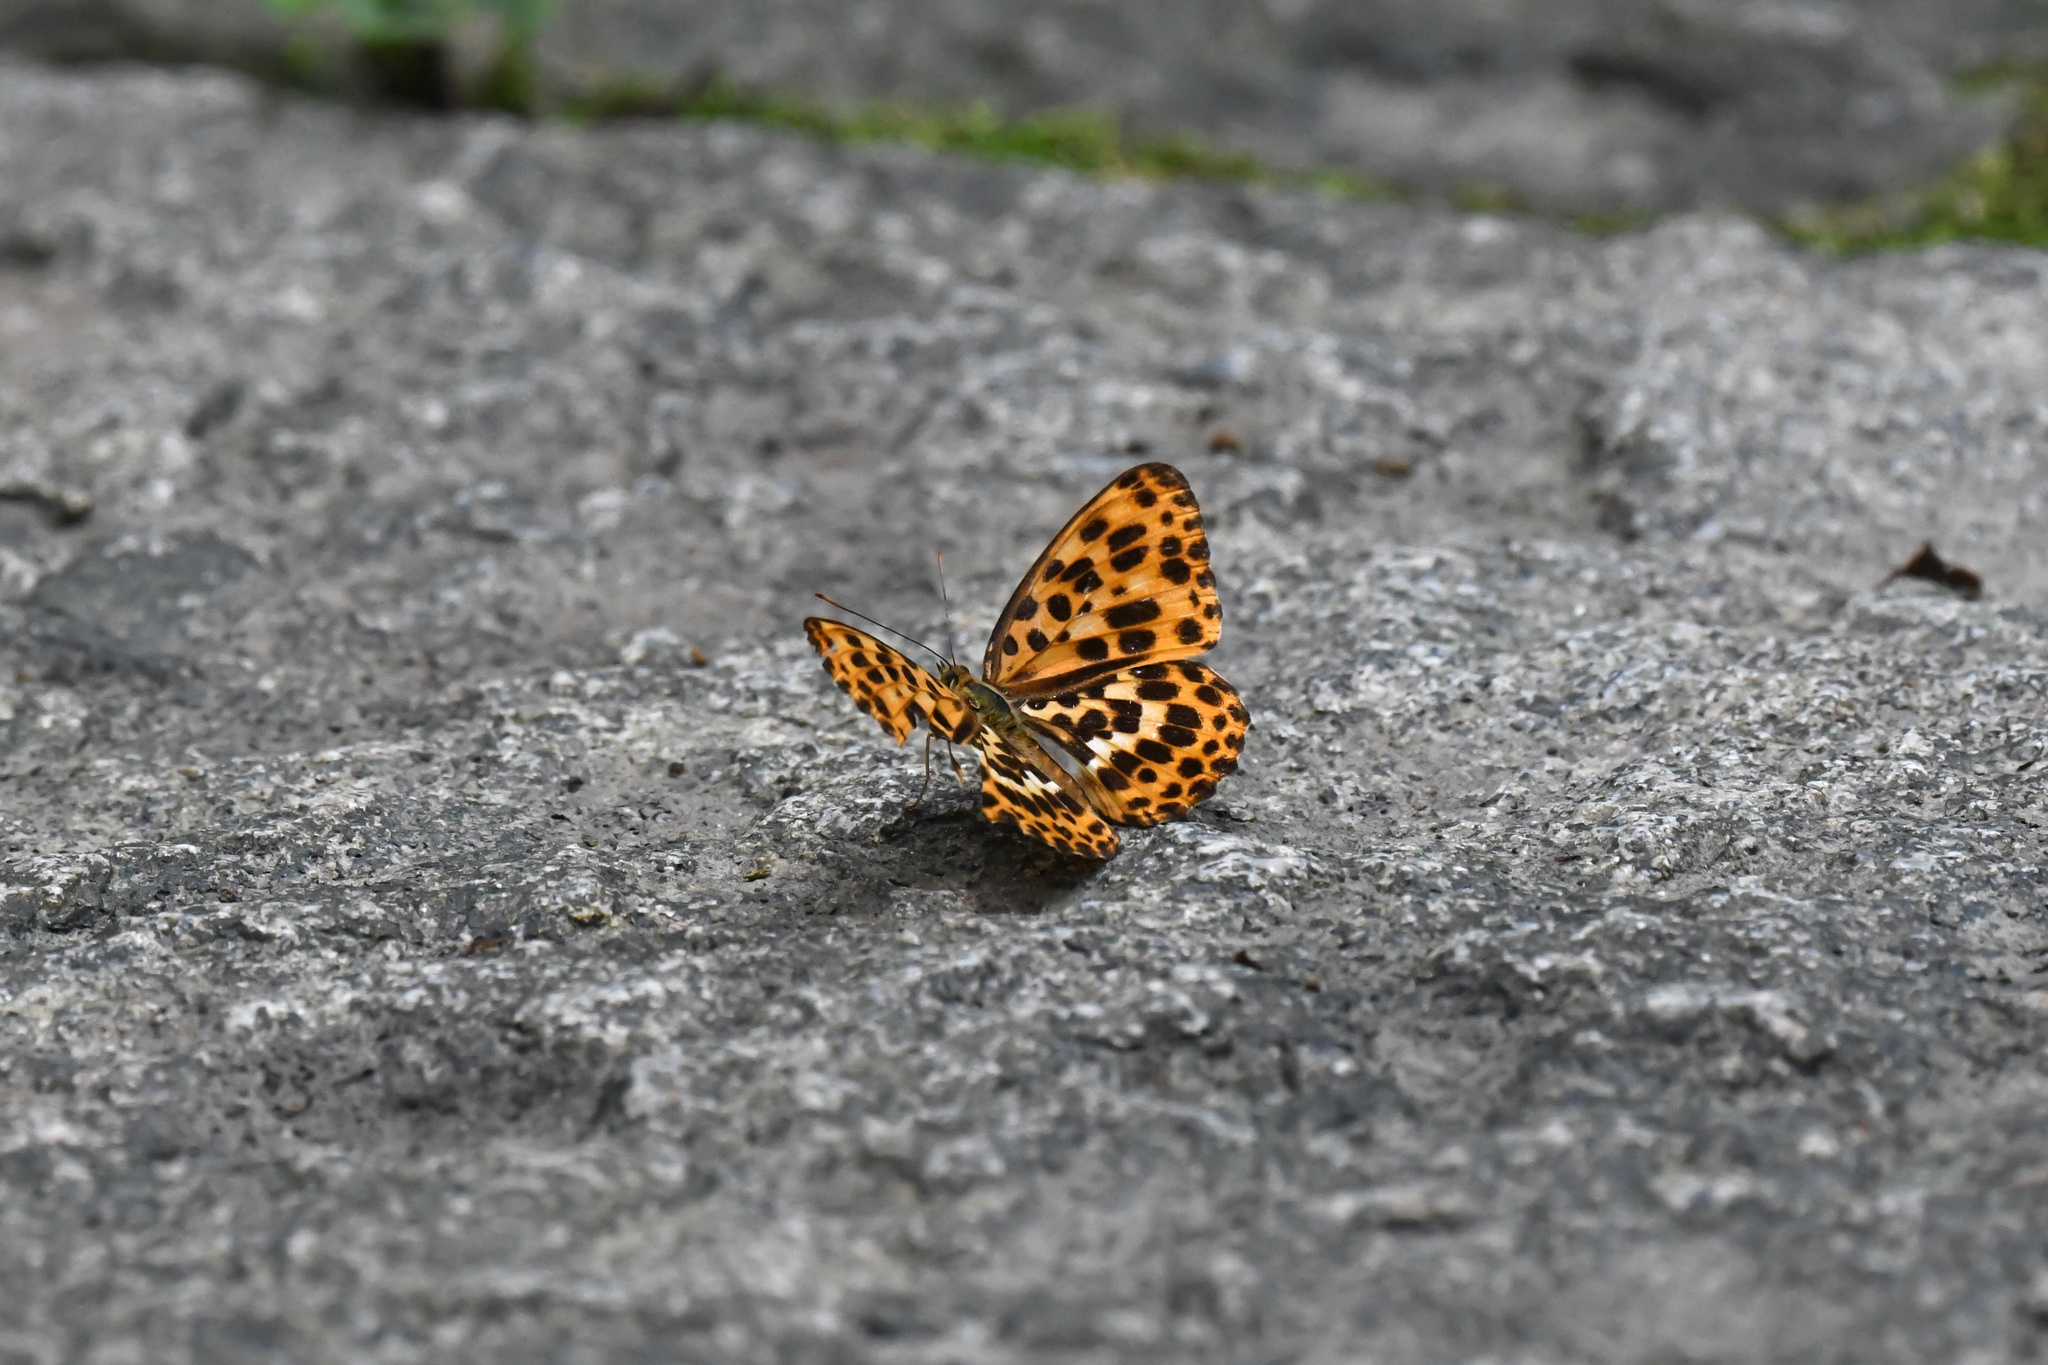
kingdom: Animalia
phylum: Arthropoda
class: Insecta
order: Lepidoptera
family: Nymphalidae
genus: Timelaea
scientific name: Timelaea albescens
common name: Beautiful leopard
